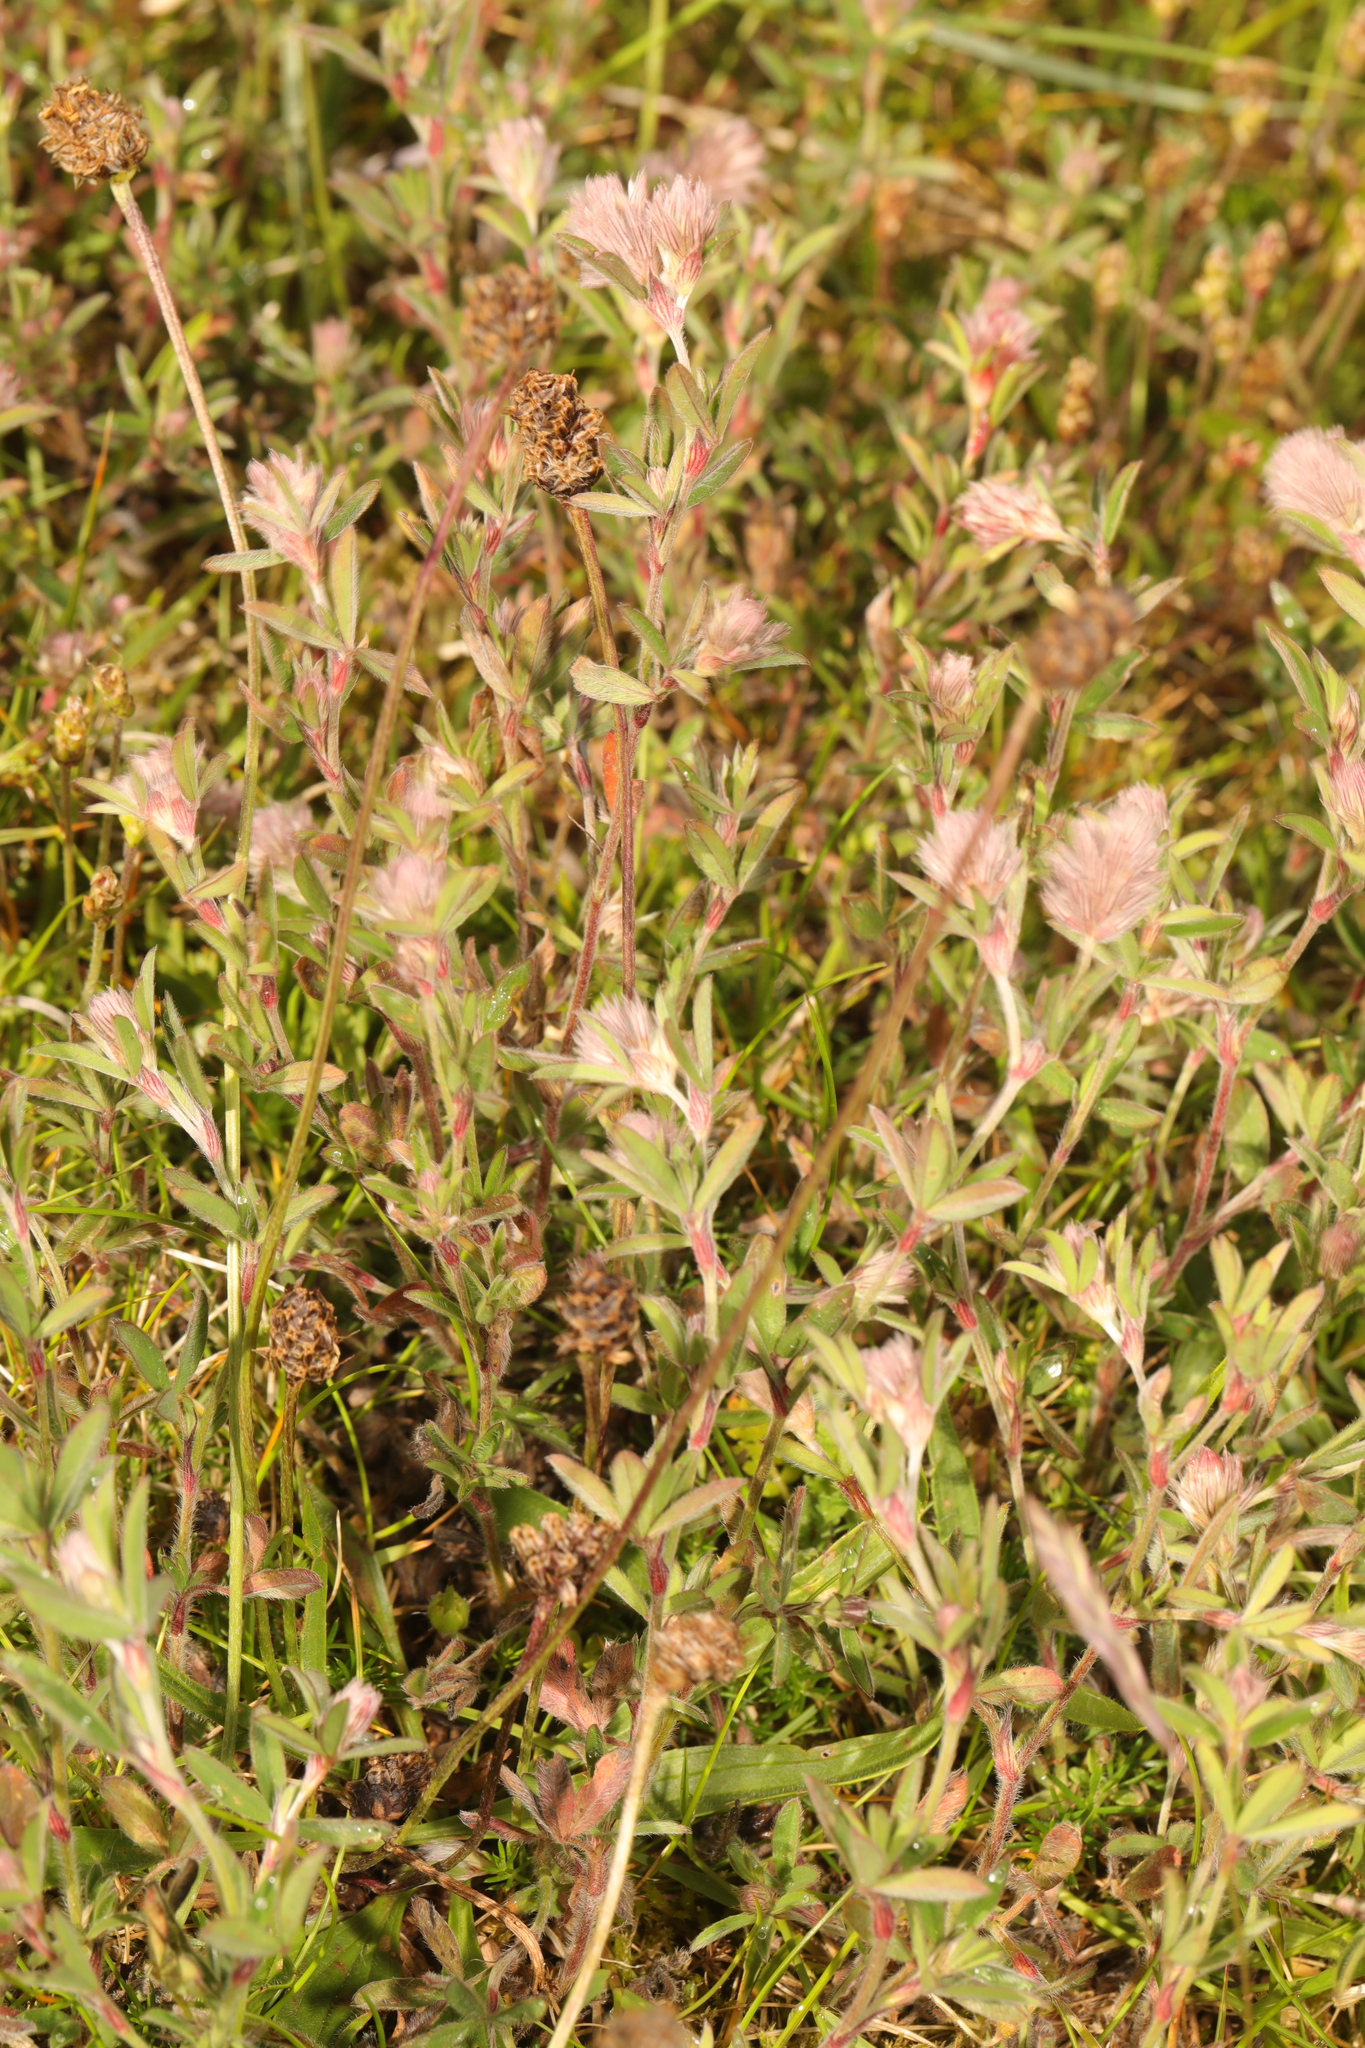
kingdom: Plantae
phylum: Tracheophyta
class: Magnoliopsida
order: Fabales
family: Fabaceae
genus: Trifolium
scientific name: Trifolium arvense
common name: Hare's-foot clover
